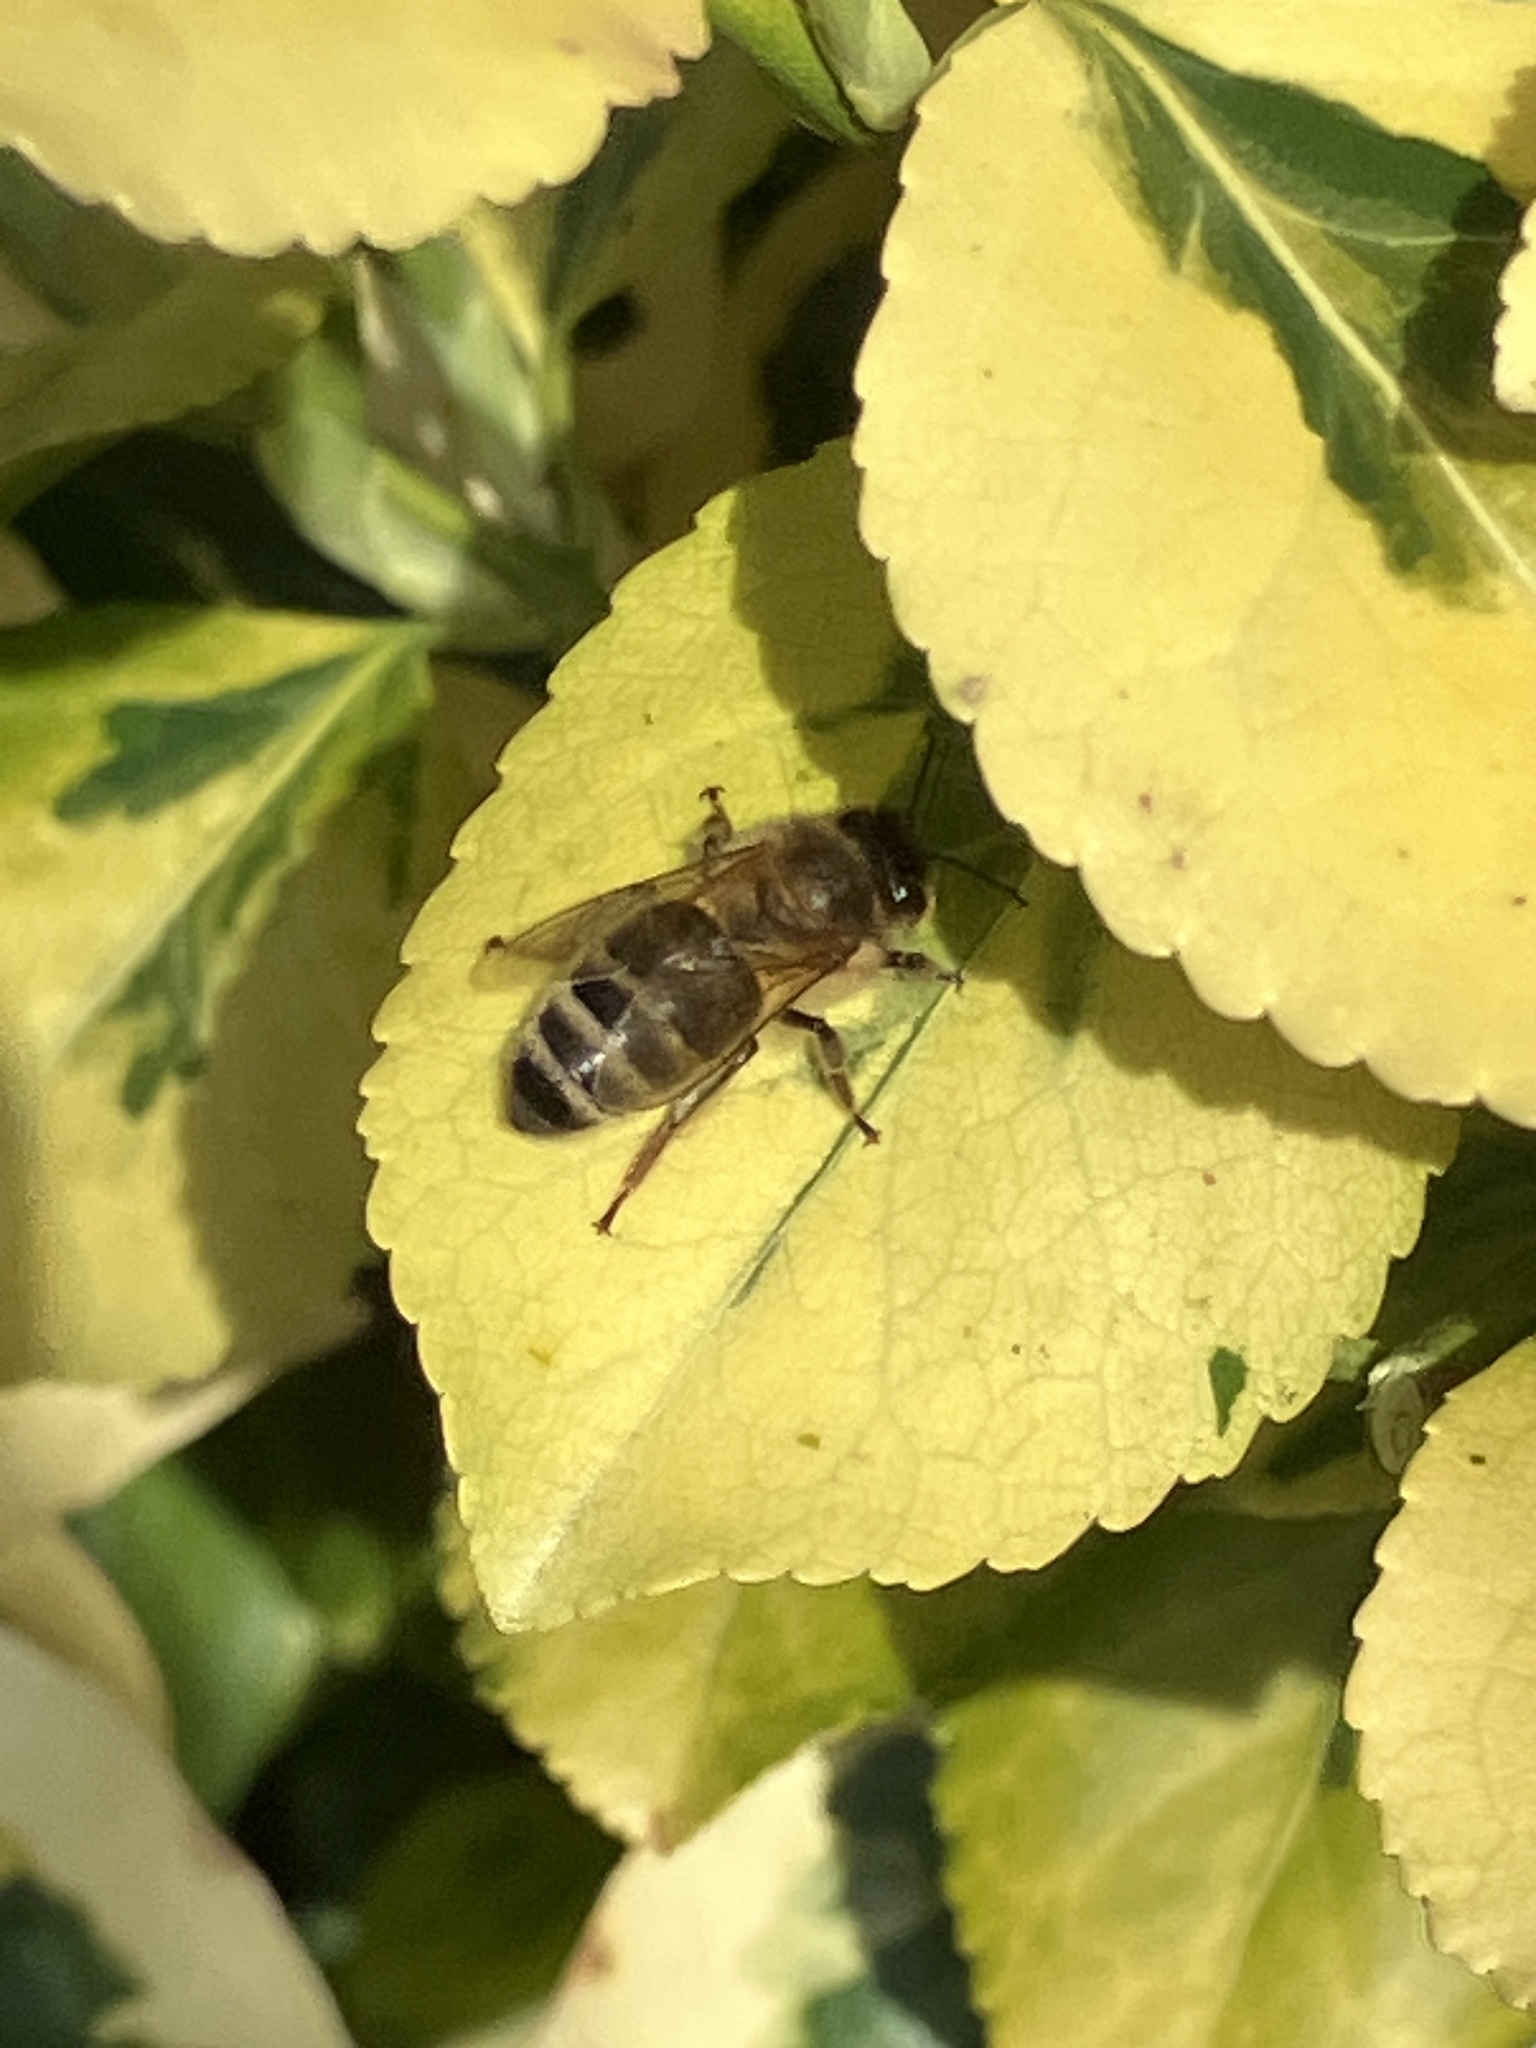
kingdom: Animalia
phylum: Arthropoda
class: Insecta
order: Hymenoptera
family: Apidae
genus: Apis
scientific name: Apis mellifera
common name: Honey bee
